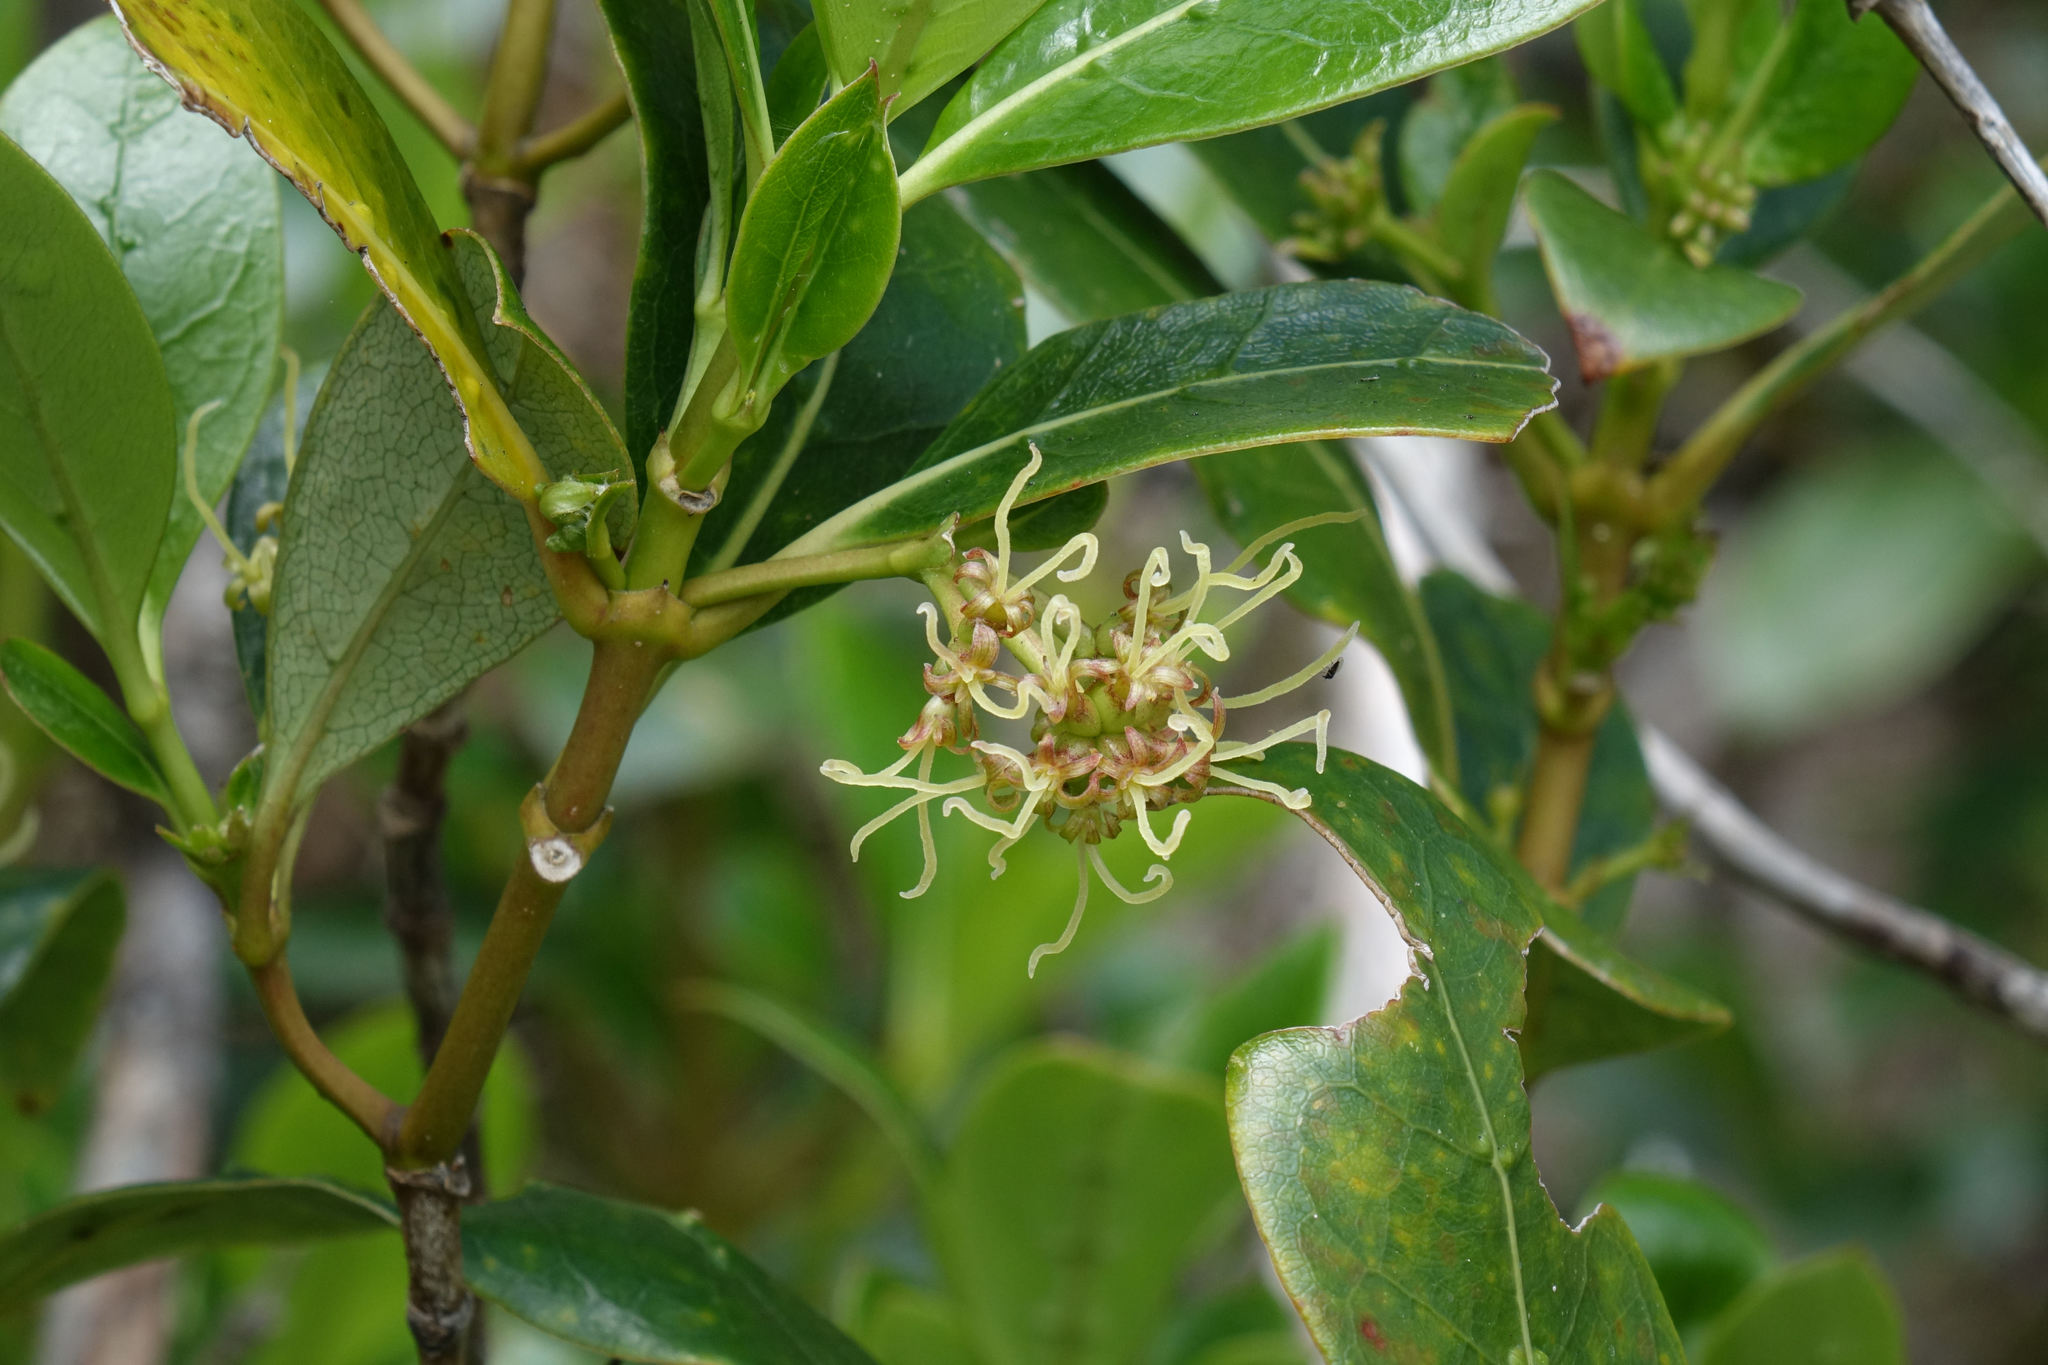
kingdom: Plantae
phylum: Tracheophyta
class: Magnoliopsida
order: Gentianales
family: Rubiaceae
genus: Coprosma
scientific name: Coprosma lucida
